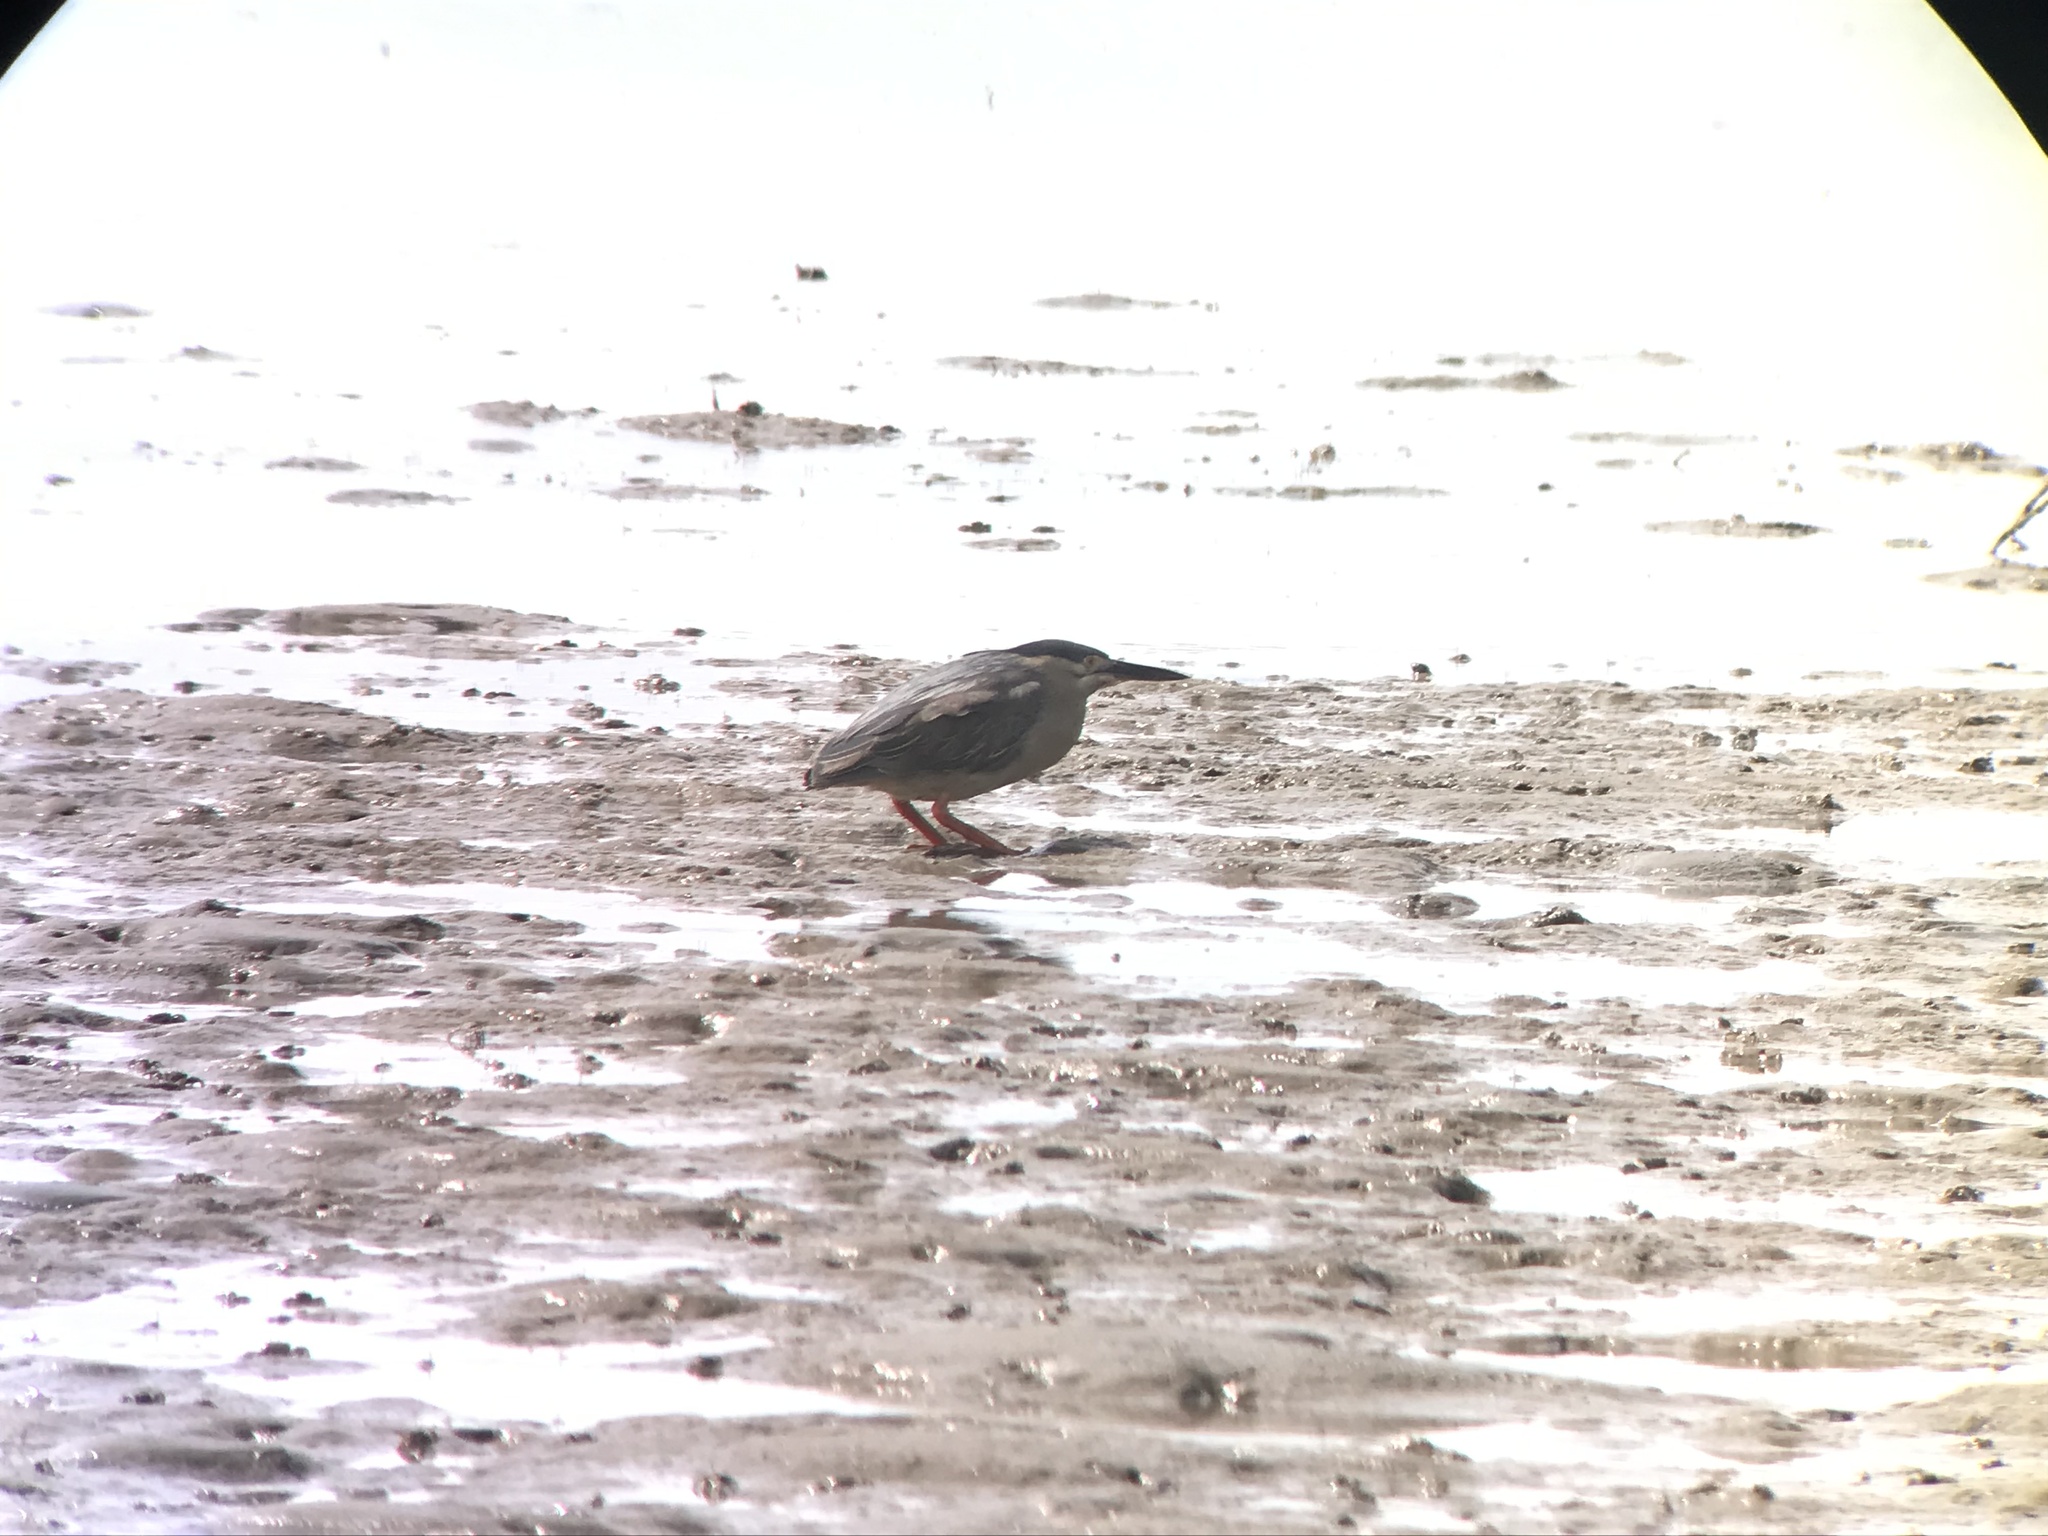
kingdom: Animalia
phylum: Chordata
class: Aves
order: Pelecaniformes
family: Ardeidae
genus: Butorides
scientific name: Butorides striata
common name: Striated heron
